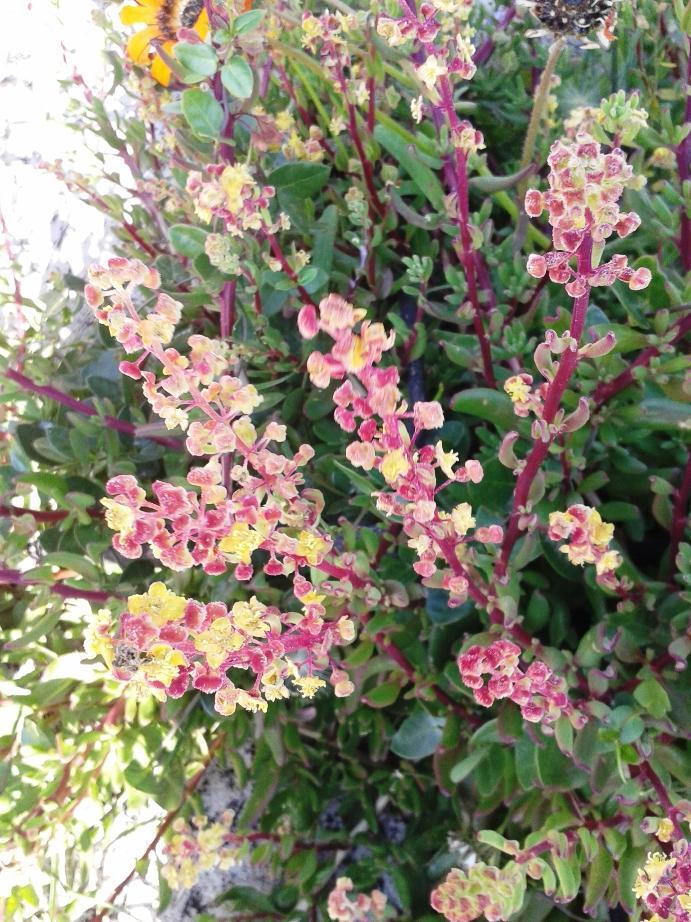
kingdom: Plantae
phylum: Tracheophyta
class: Magnoliopsida
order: Caryophyllales
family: Aizoaceae
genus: Tetragonia
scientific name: Tetragonia fruticosa
